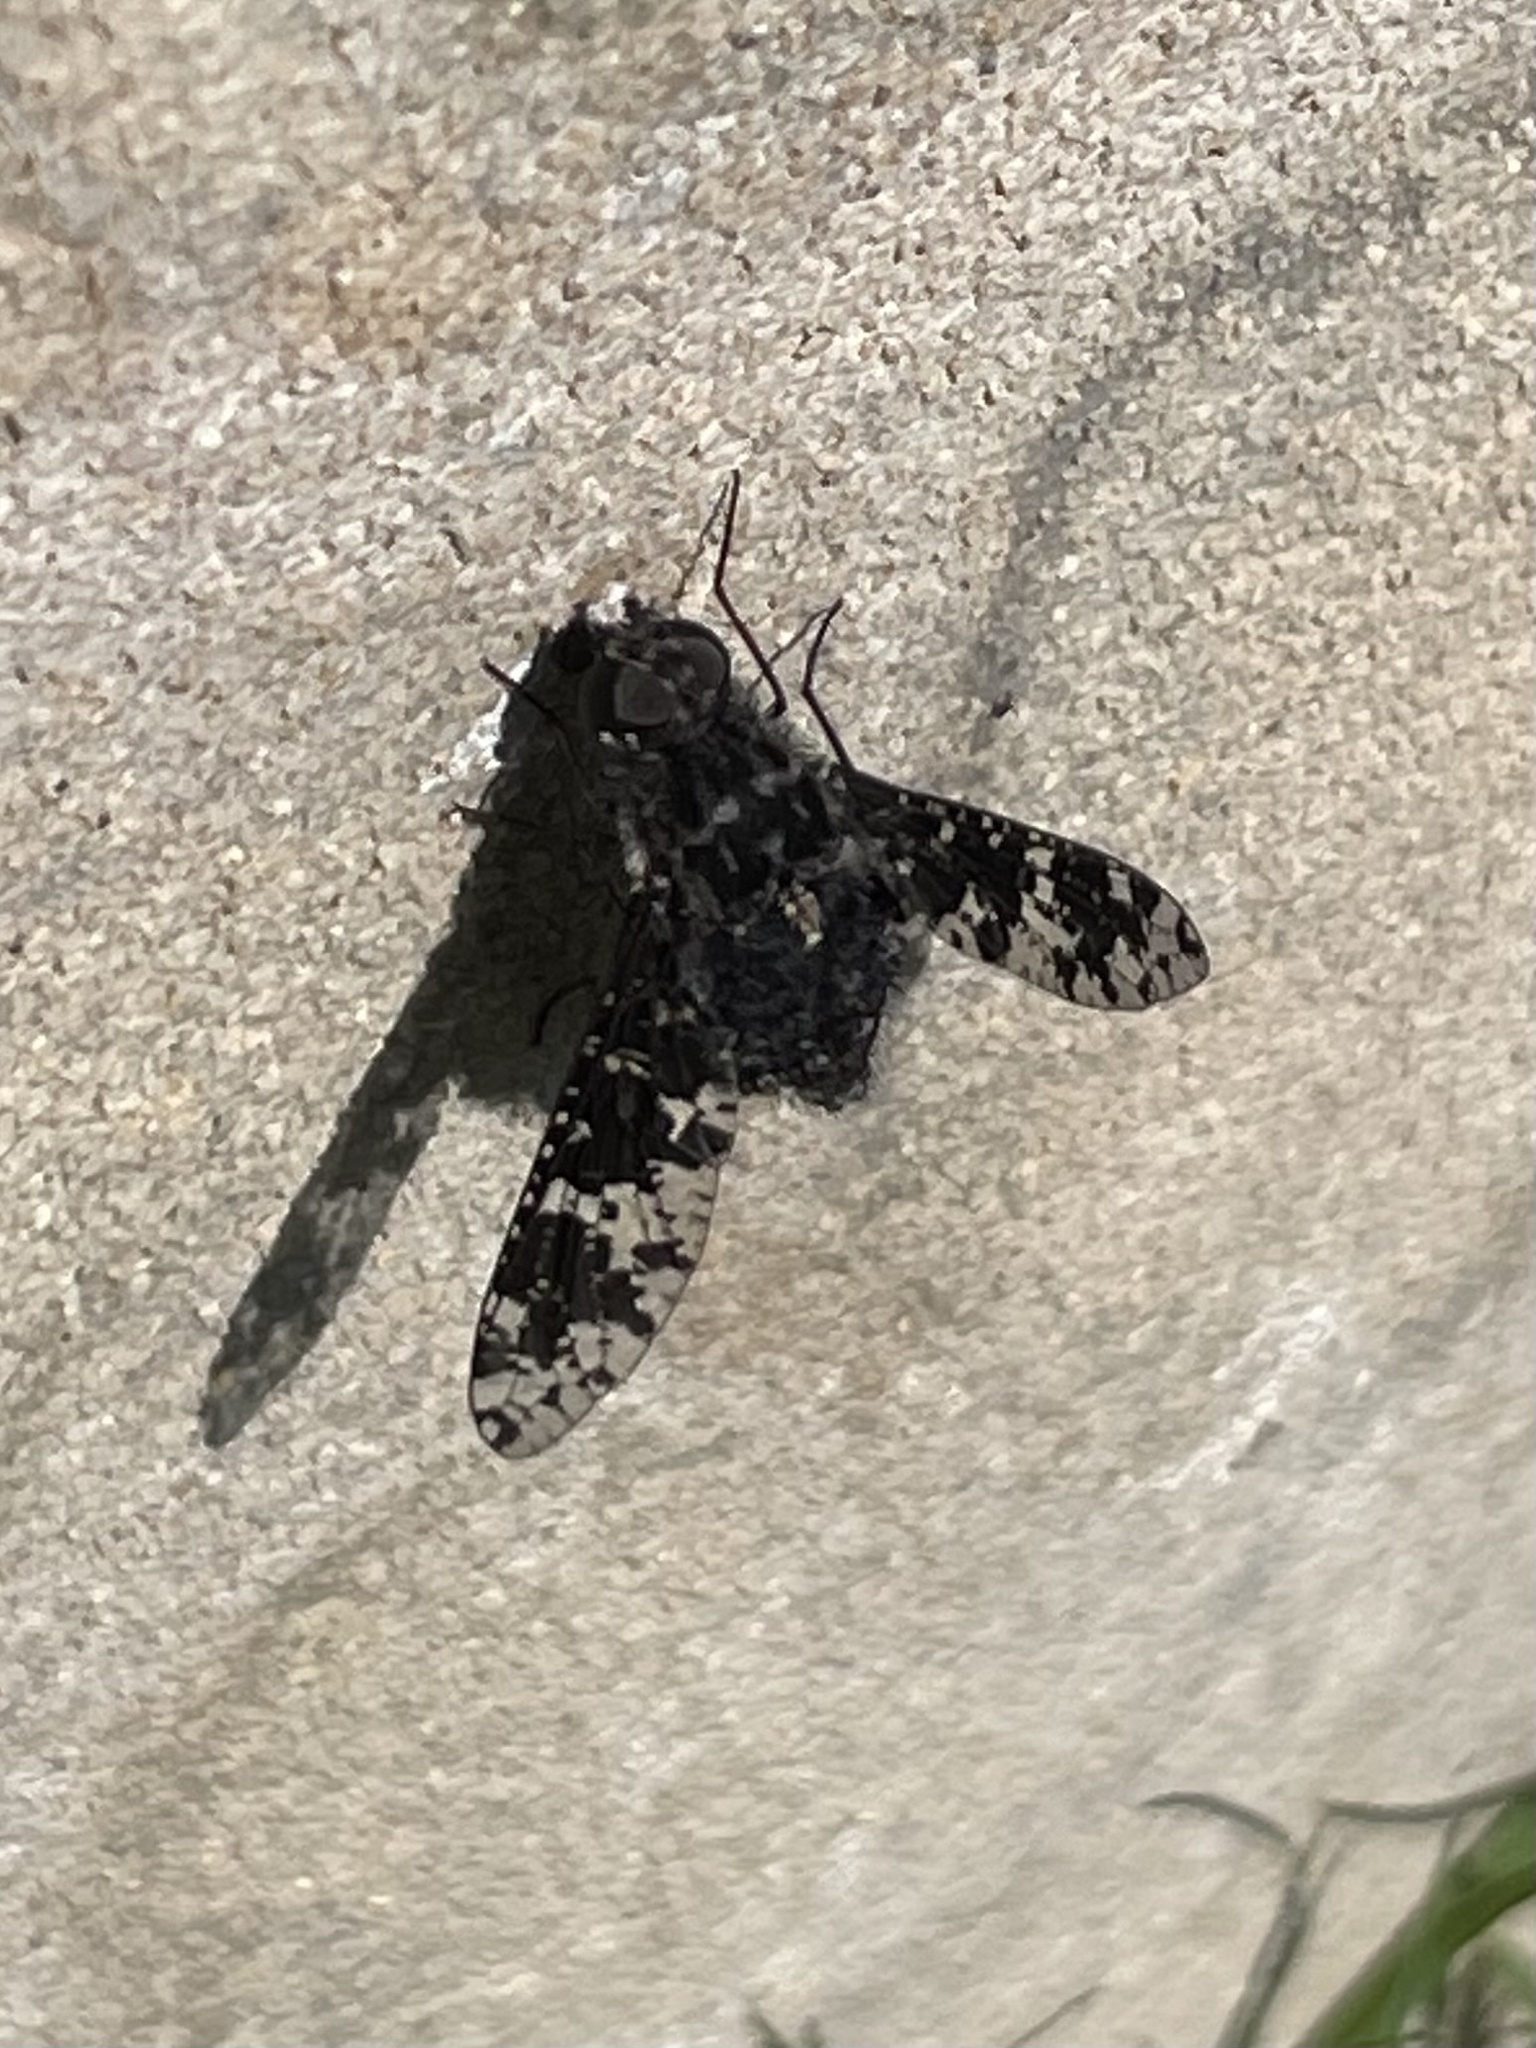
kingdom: Animalia
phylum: Arthropoda
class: Insecta
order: Diptera
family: Bombyliidae
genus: Anthrax
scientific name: Anthrax
